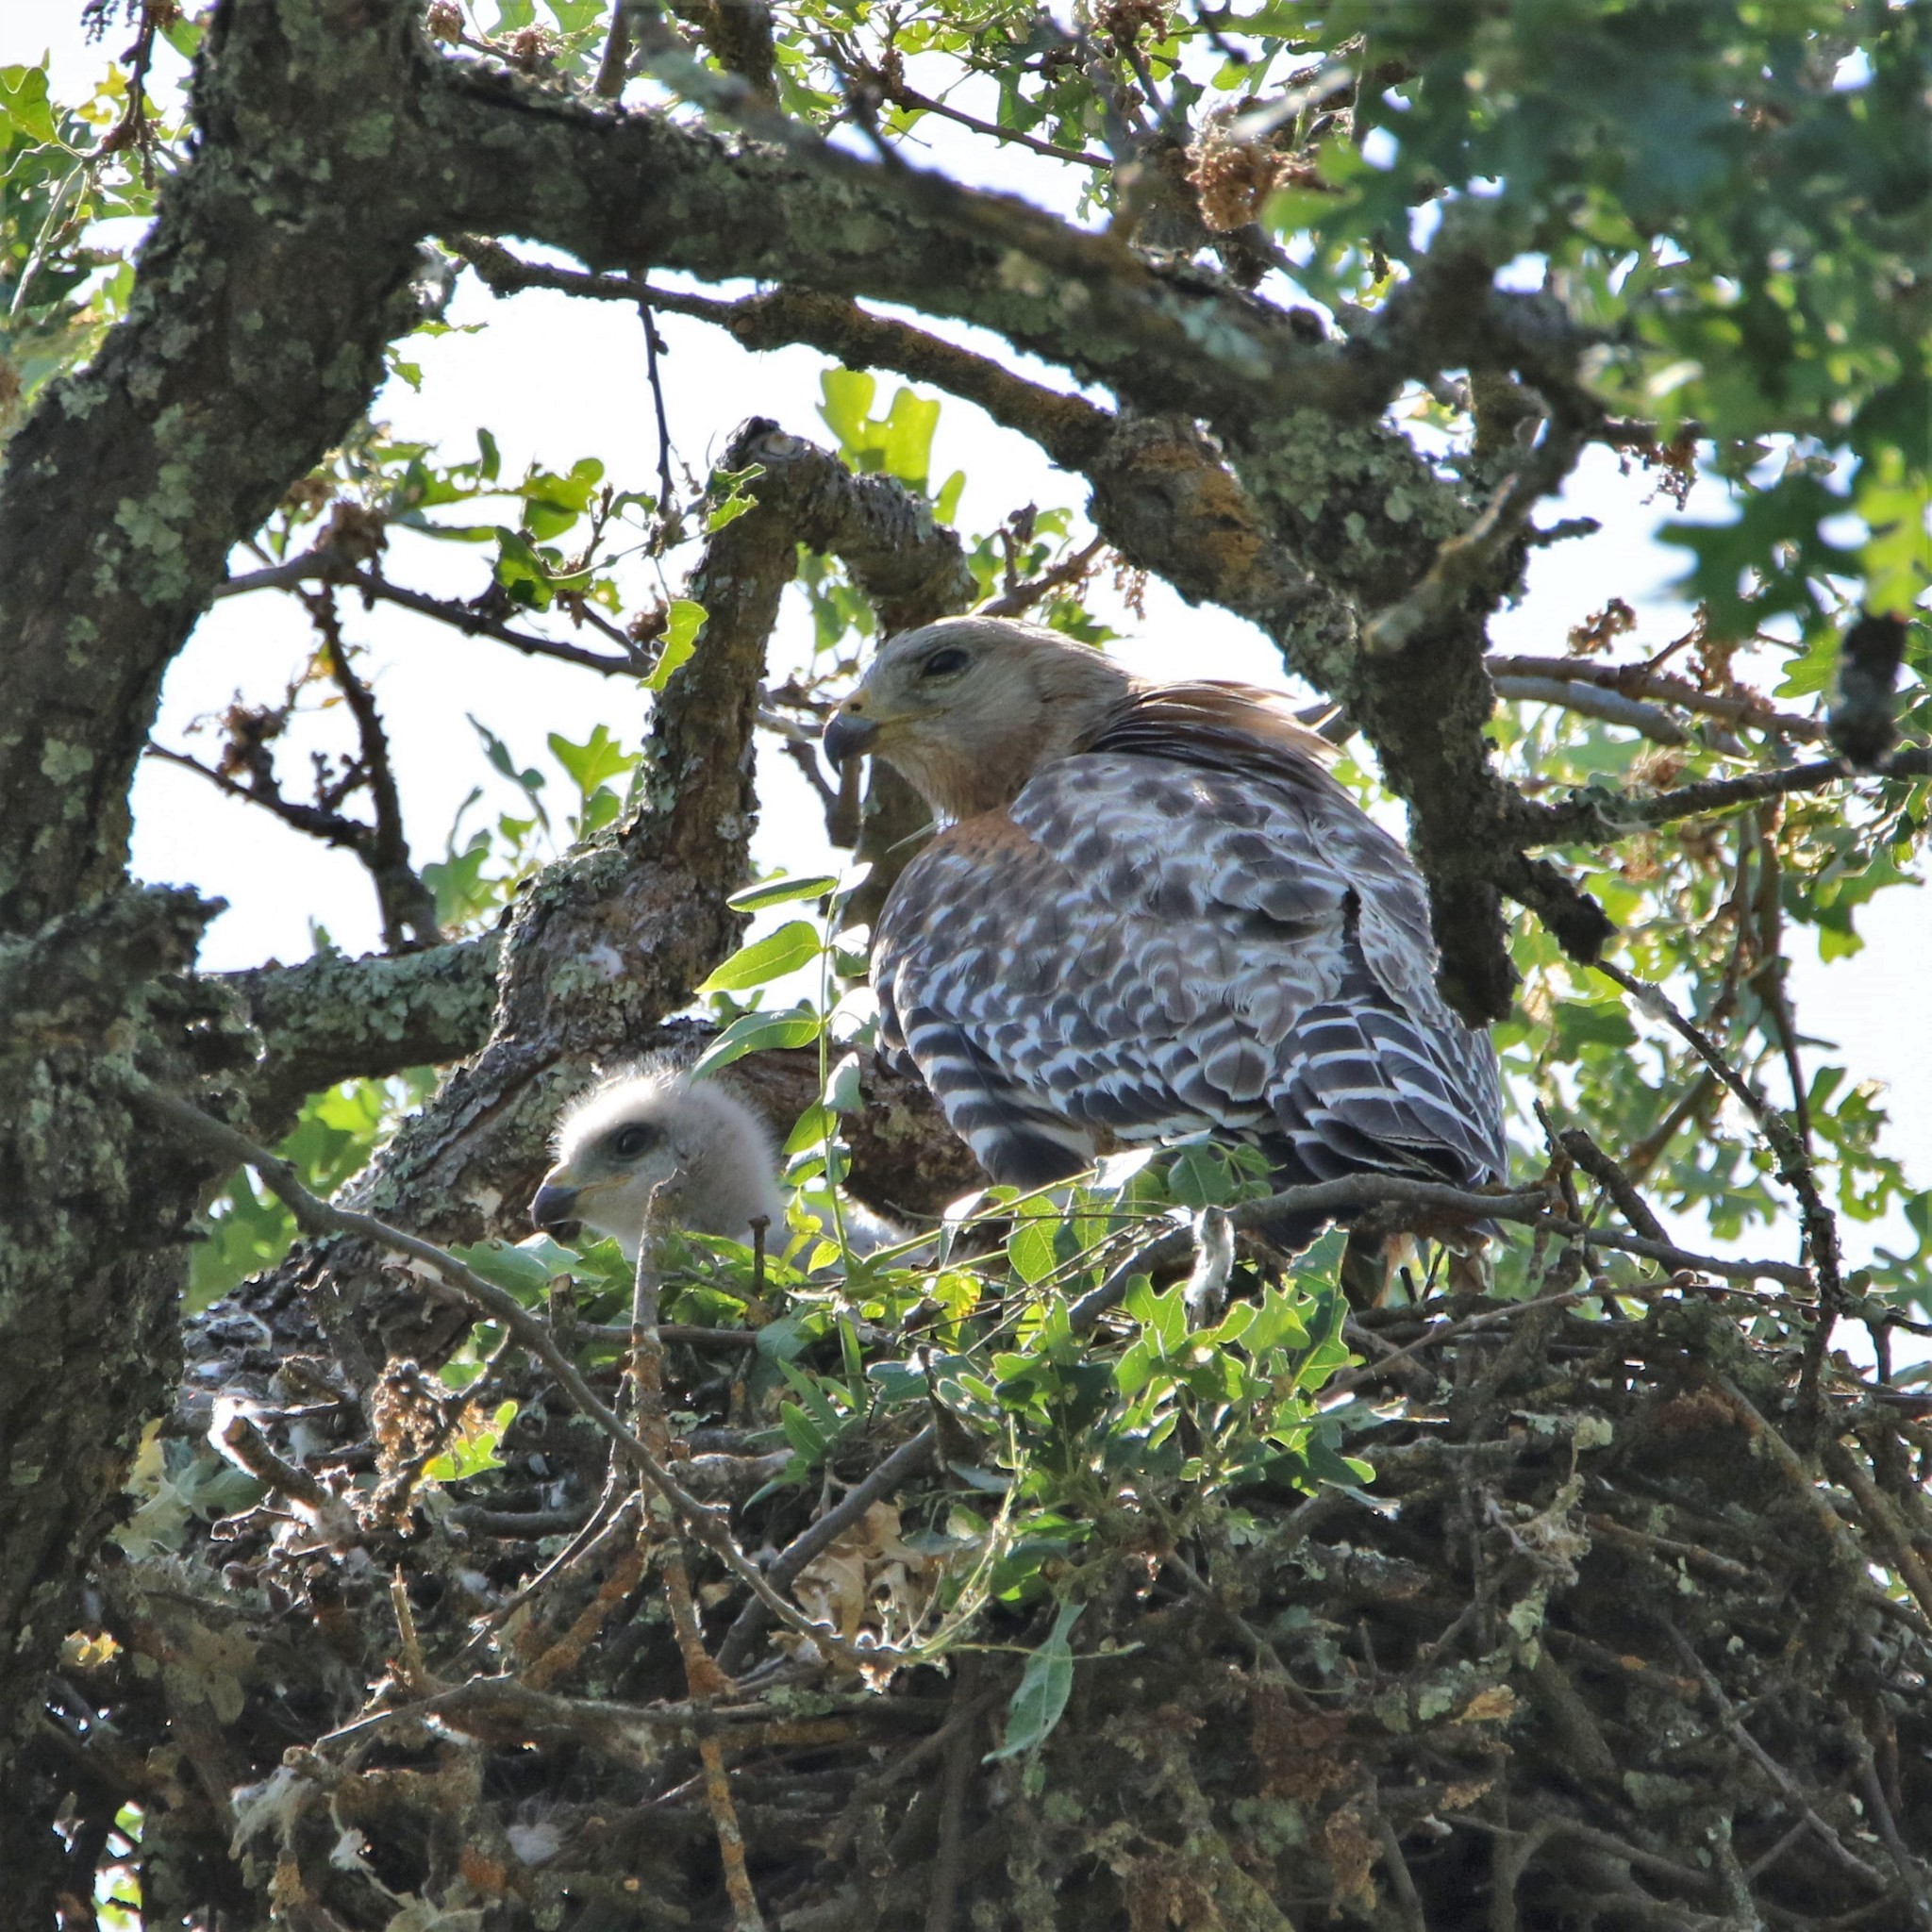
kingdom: Animalia
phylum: Chordata
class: Aves
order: Accipitriformes
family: Accipitridae
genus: Buteo
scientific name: Buteo lineatus
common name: Red-shouldered hawk
